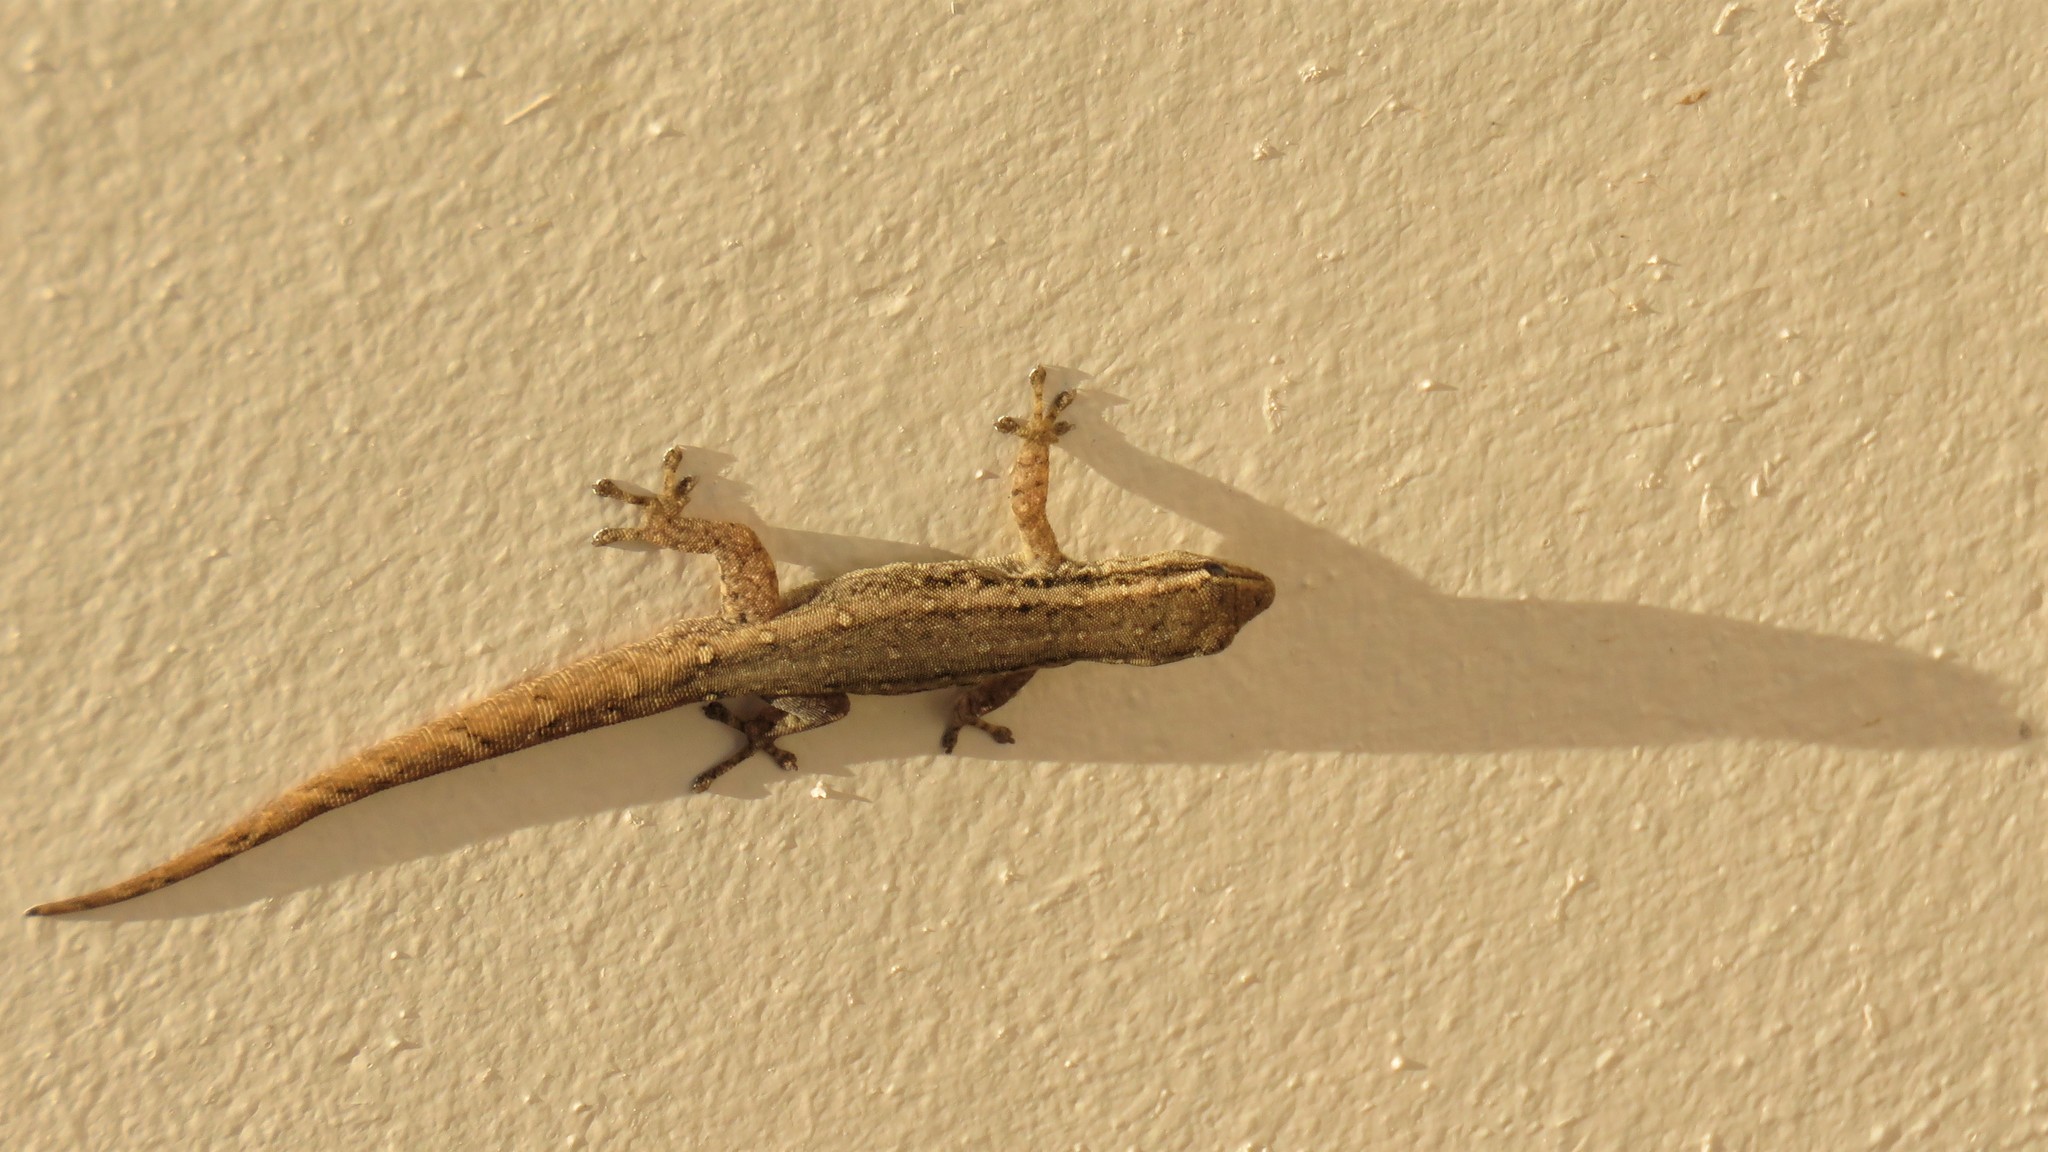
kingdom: Animalia
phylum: Chordata
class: Squamata
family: Gekkonidae
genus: Lygodactylus
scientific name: Lygodactylus capensis
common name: Cape dwarf gecko
